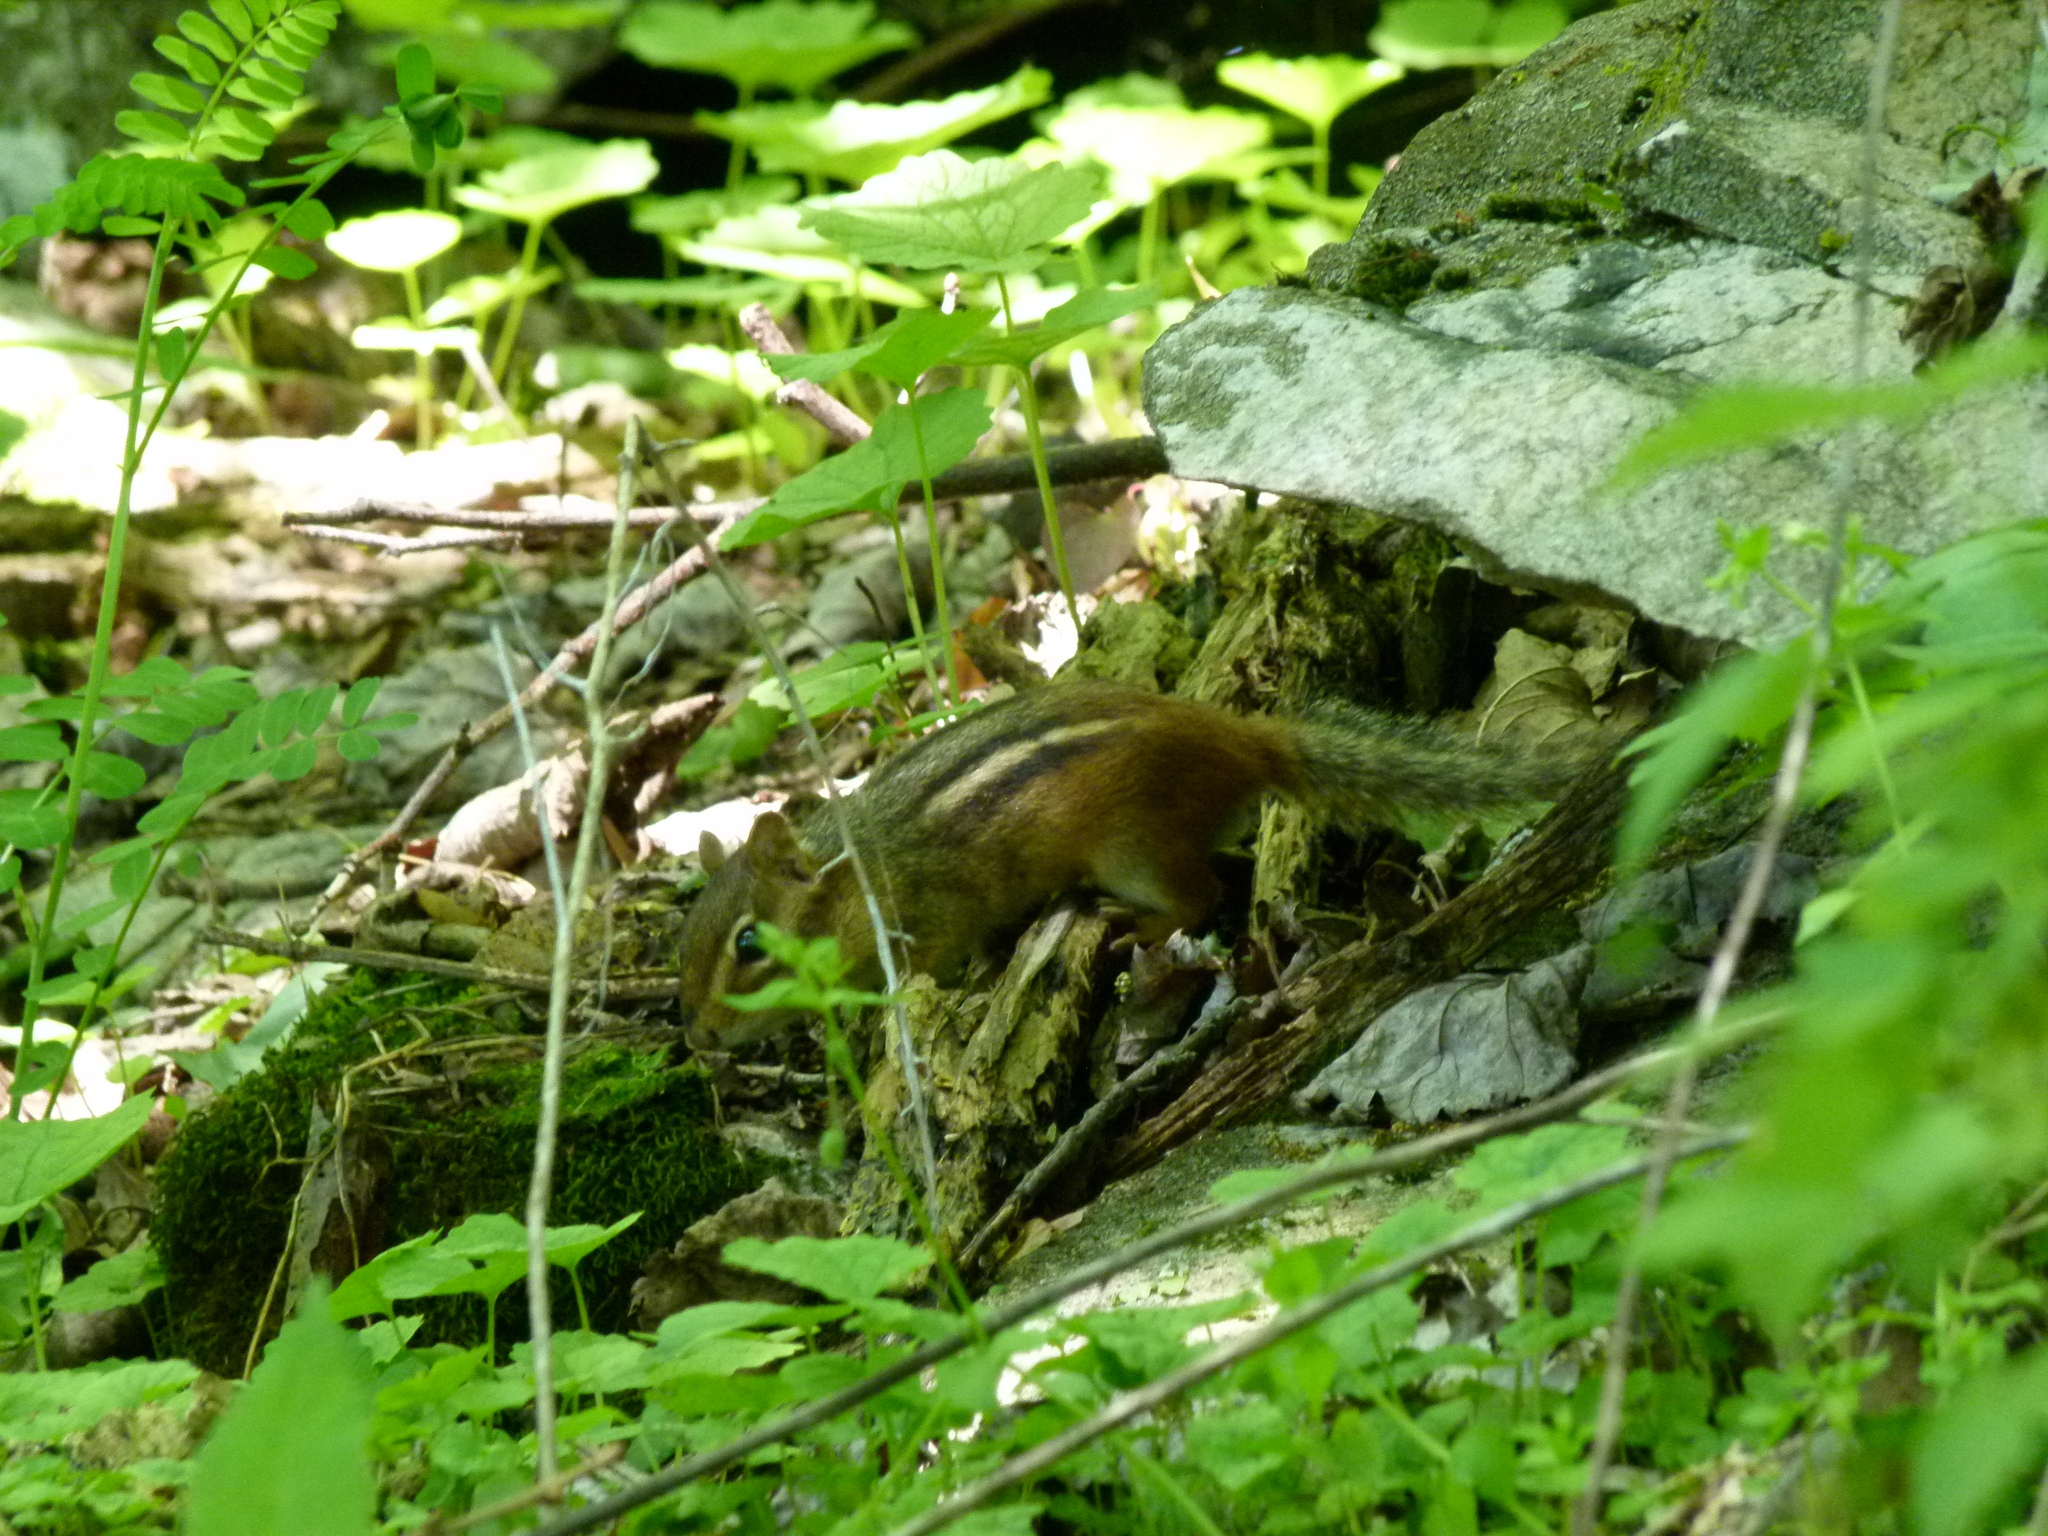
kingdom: Animalia
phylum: Chordata
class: Mammalia
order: Rodentia
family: Sciuridae
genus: Tamias
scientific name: Tamias striatus
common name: Eastern chipmunk
